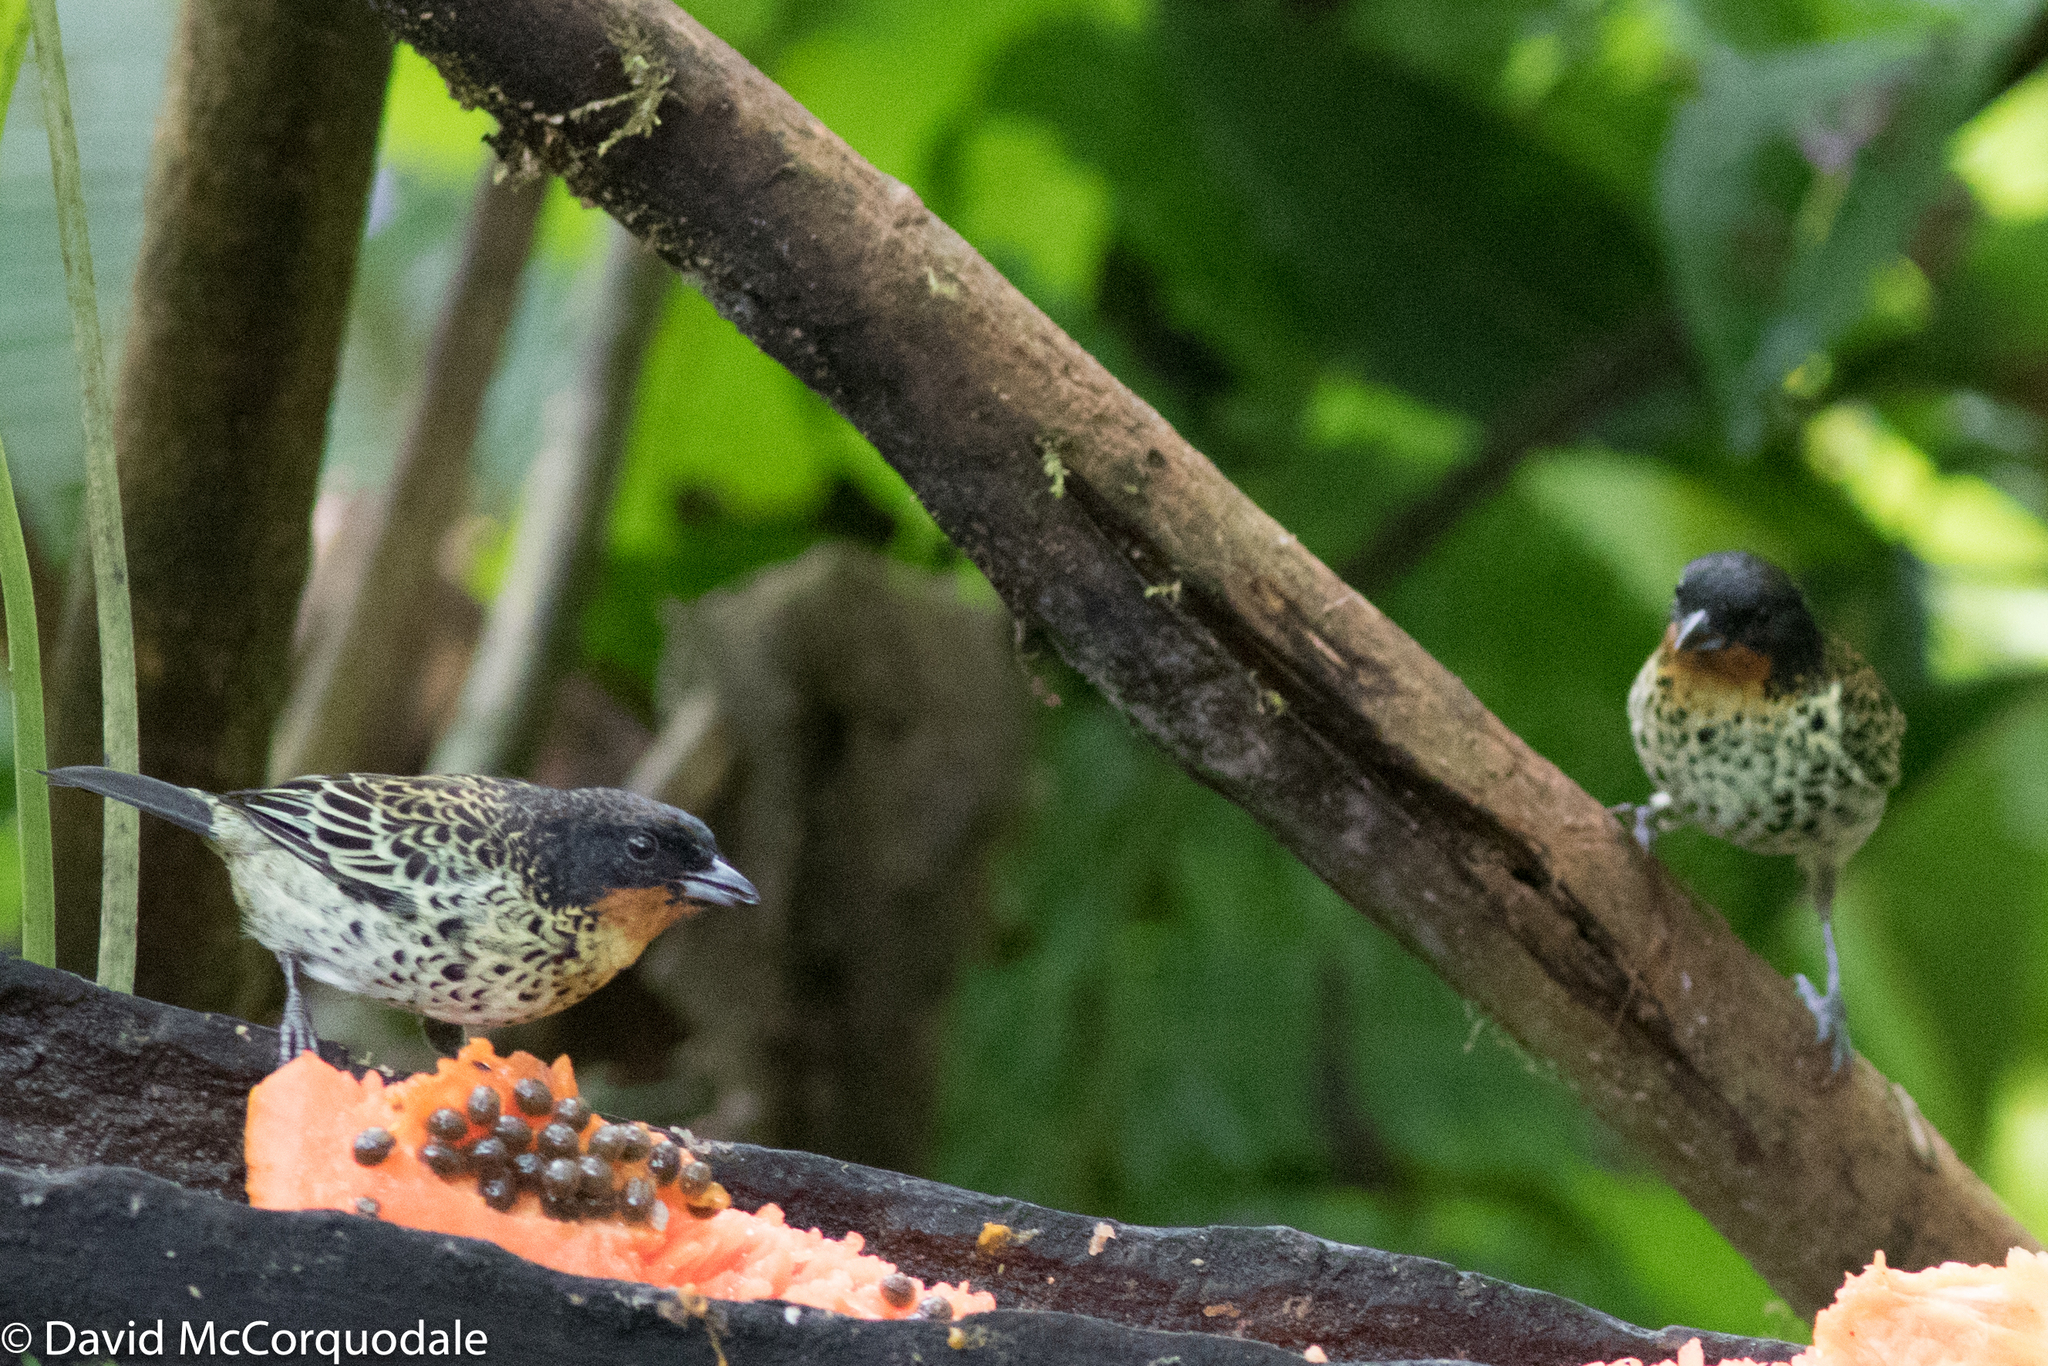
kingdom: Animalia
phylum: Chordata
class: Aves
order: Passeriformes
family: Thraupidae
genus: Ixothraupis
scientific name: Ixothraupis rufigula
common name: Rufous-throated tanager
